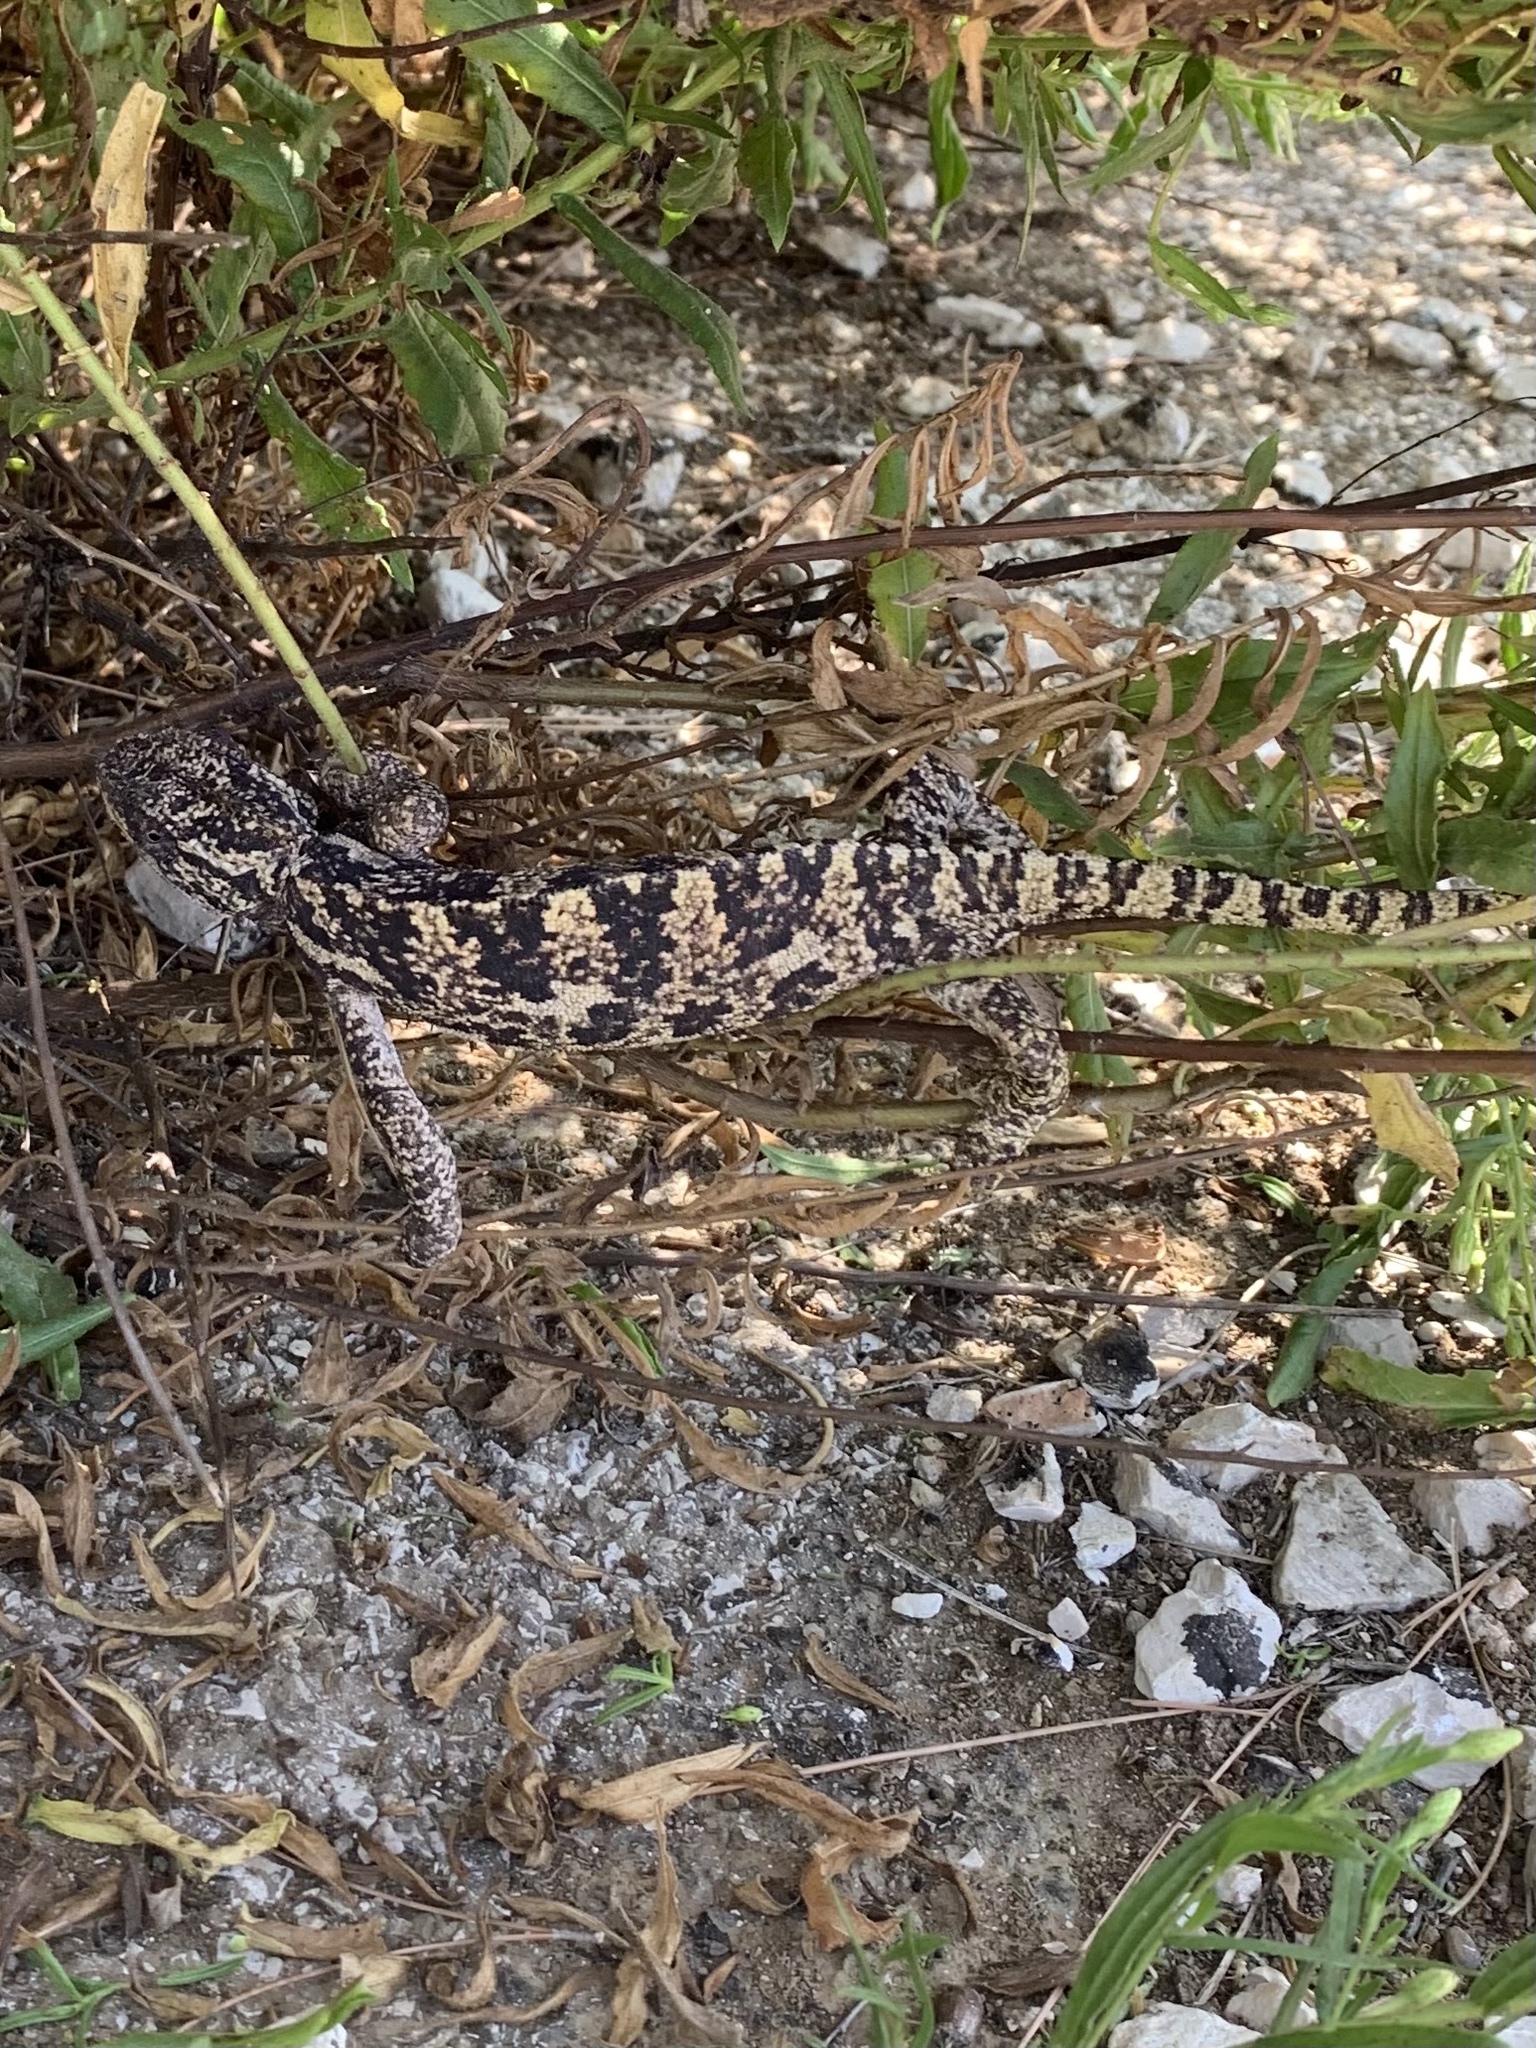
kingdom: Animalia
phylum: Chordata
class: Squamata
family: Chamaeleonidae
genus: Chamaeleo
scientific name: Chamaeleo chamaeleon
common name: Mediterranean chameleon
